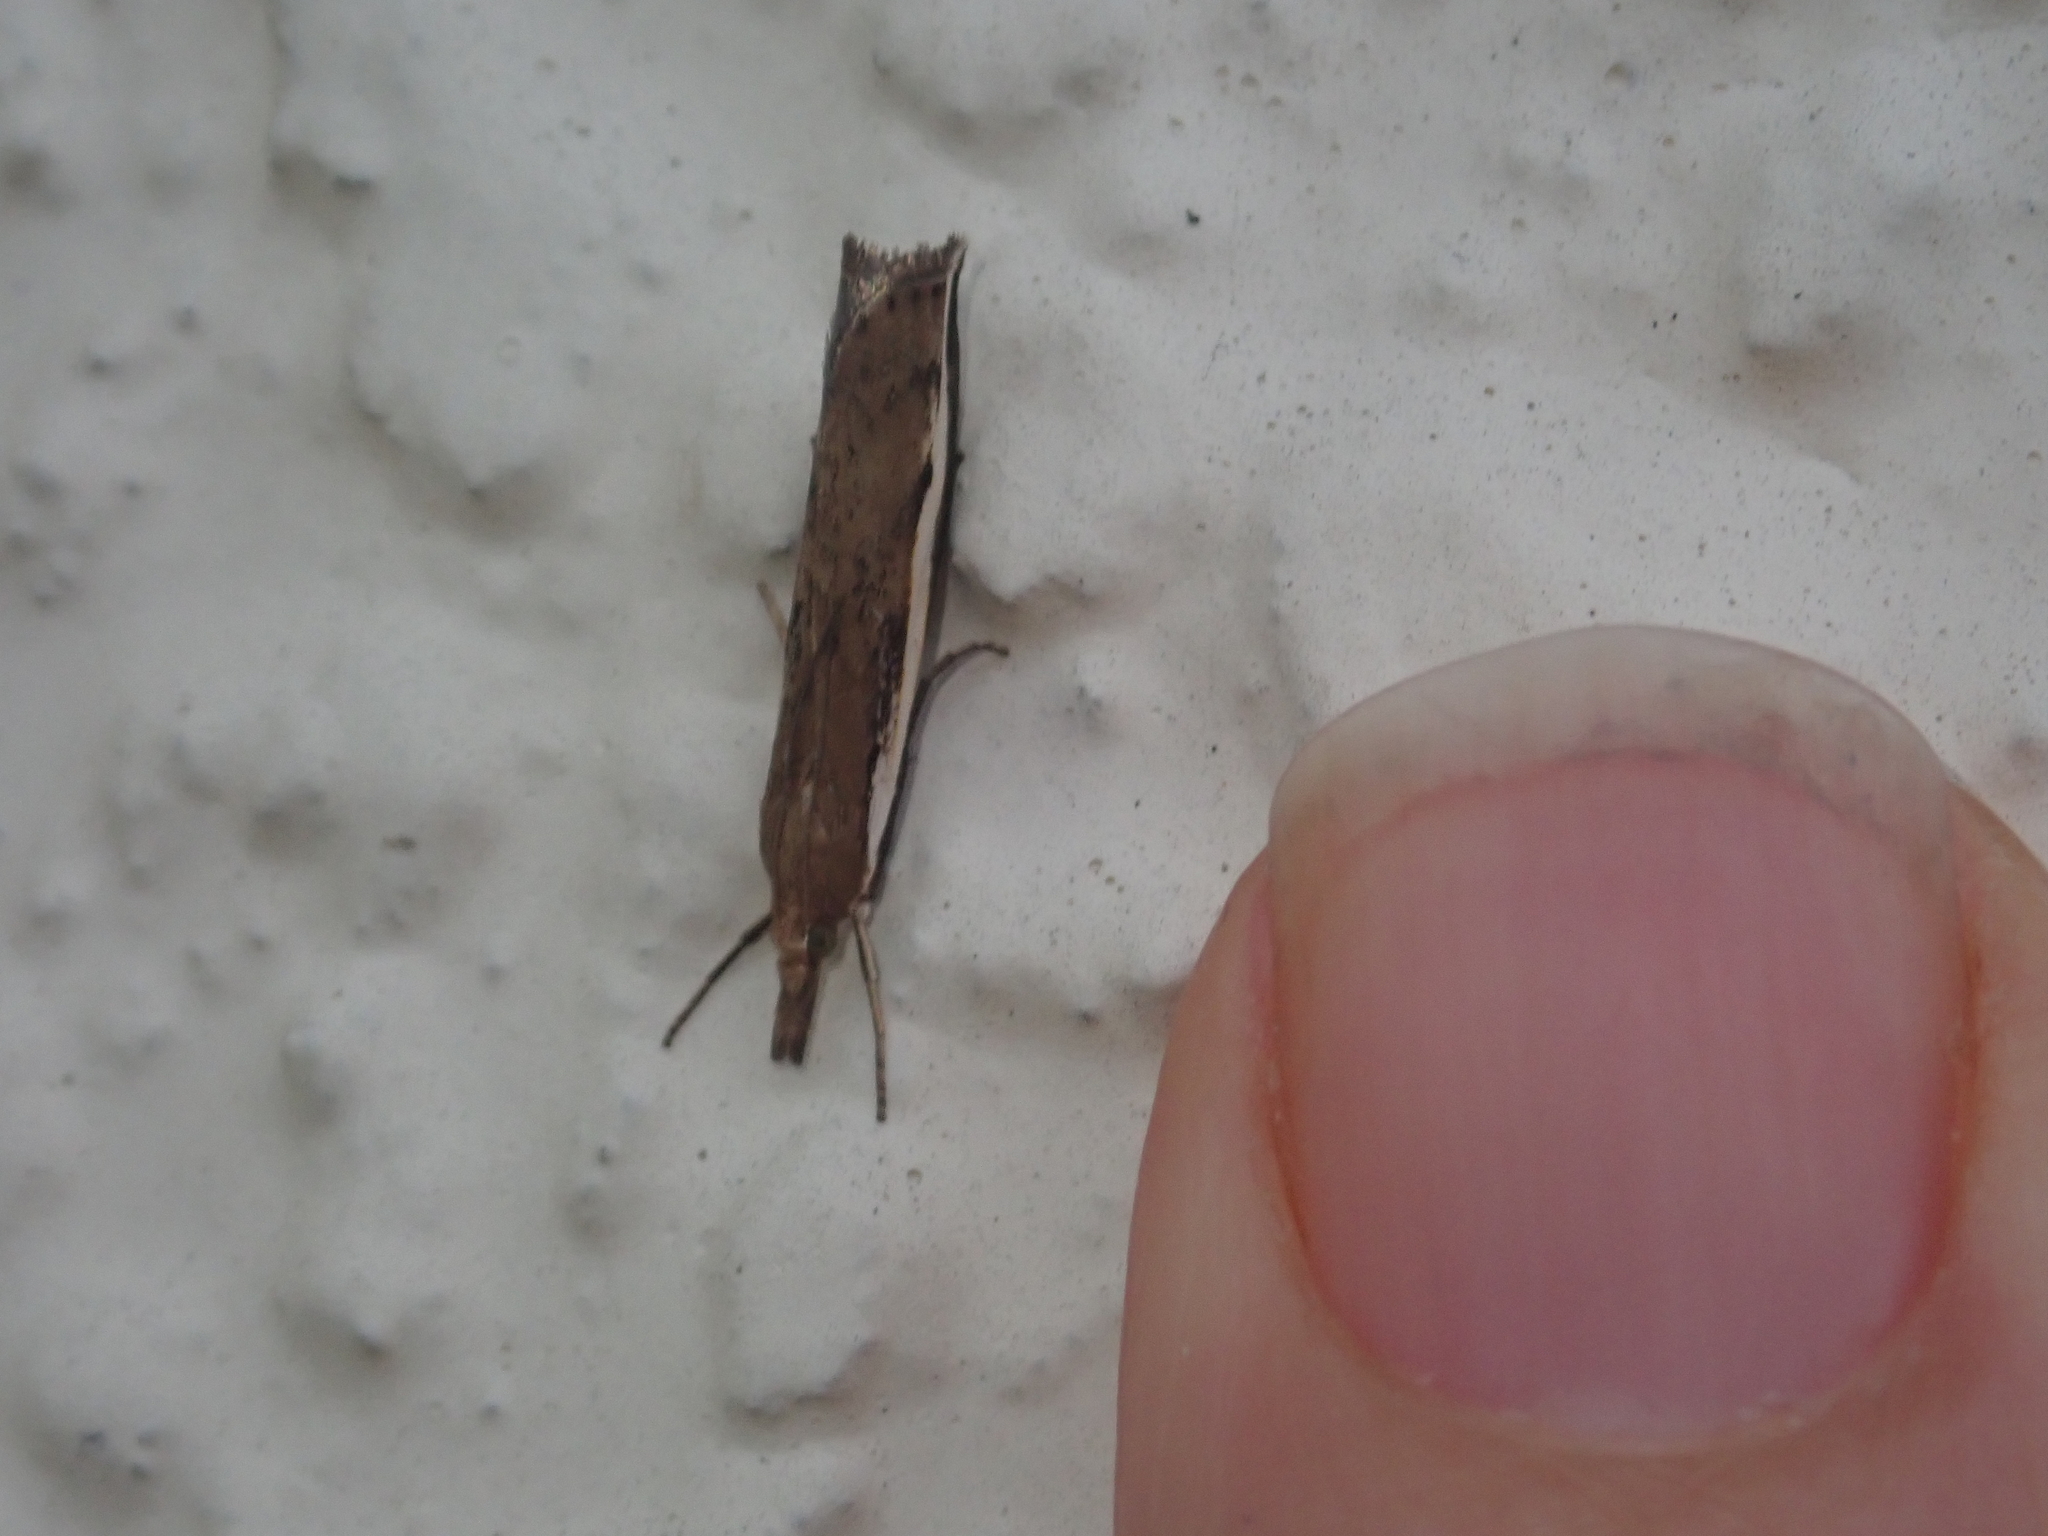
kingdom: Animalia
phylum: Arthropoda
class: Insecta
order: Lepidoptera
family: Crambidae
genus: Orocrambus
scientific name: Orocrambus flexuosellus
